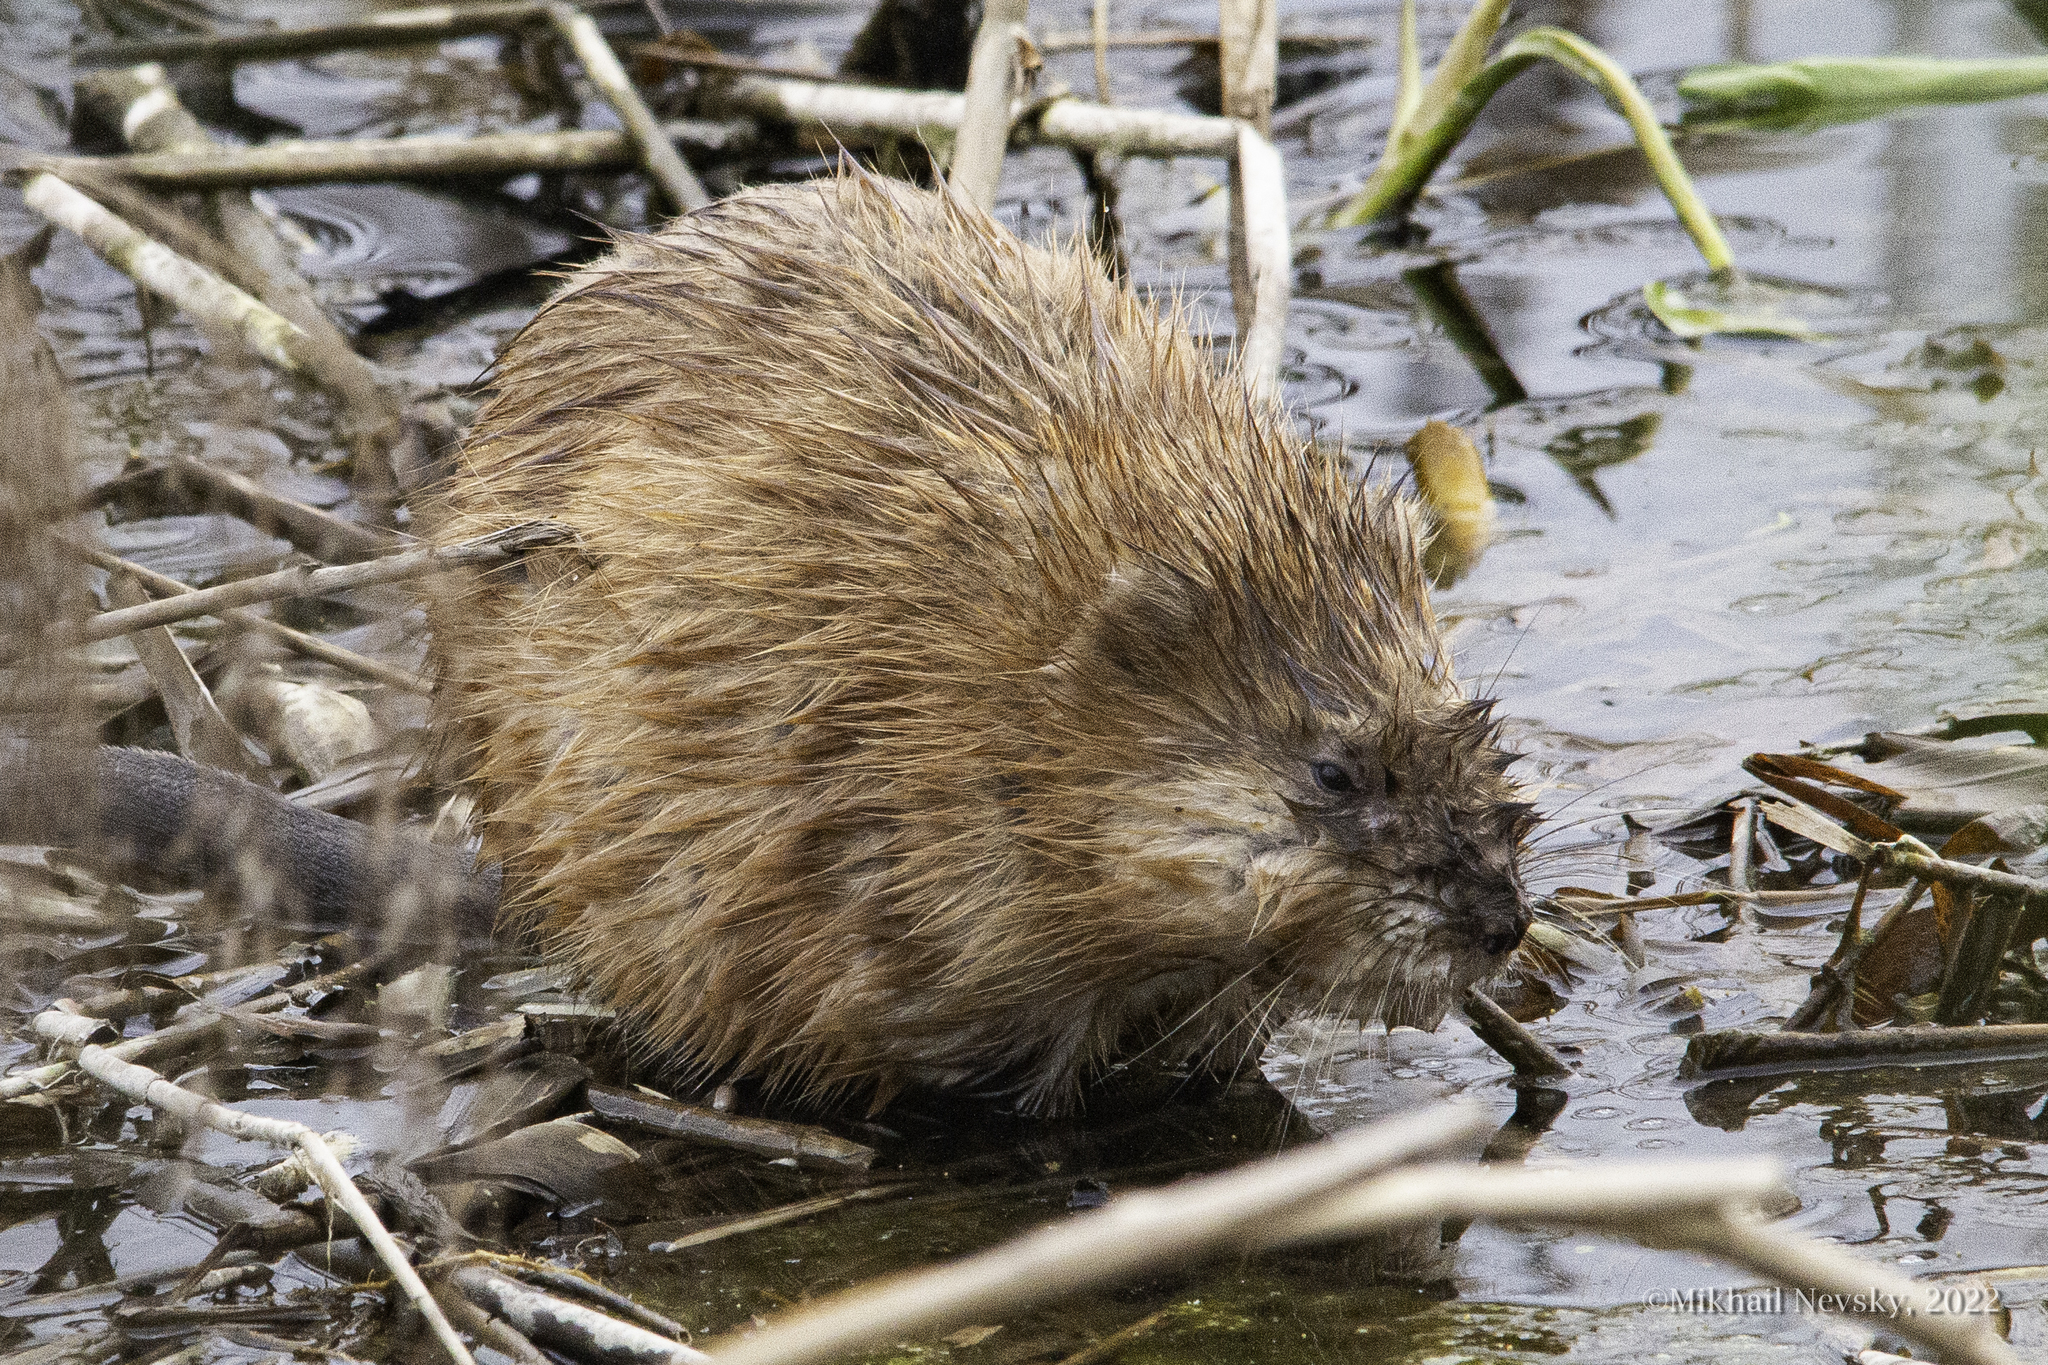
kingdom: Animalia
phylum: Chordata
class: Mammalia
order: Rodentia
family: Cricetidae
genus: Ondatra
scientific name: Ondatra zibethicus
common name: Muskrat
